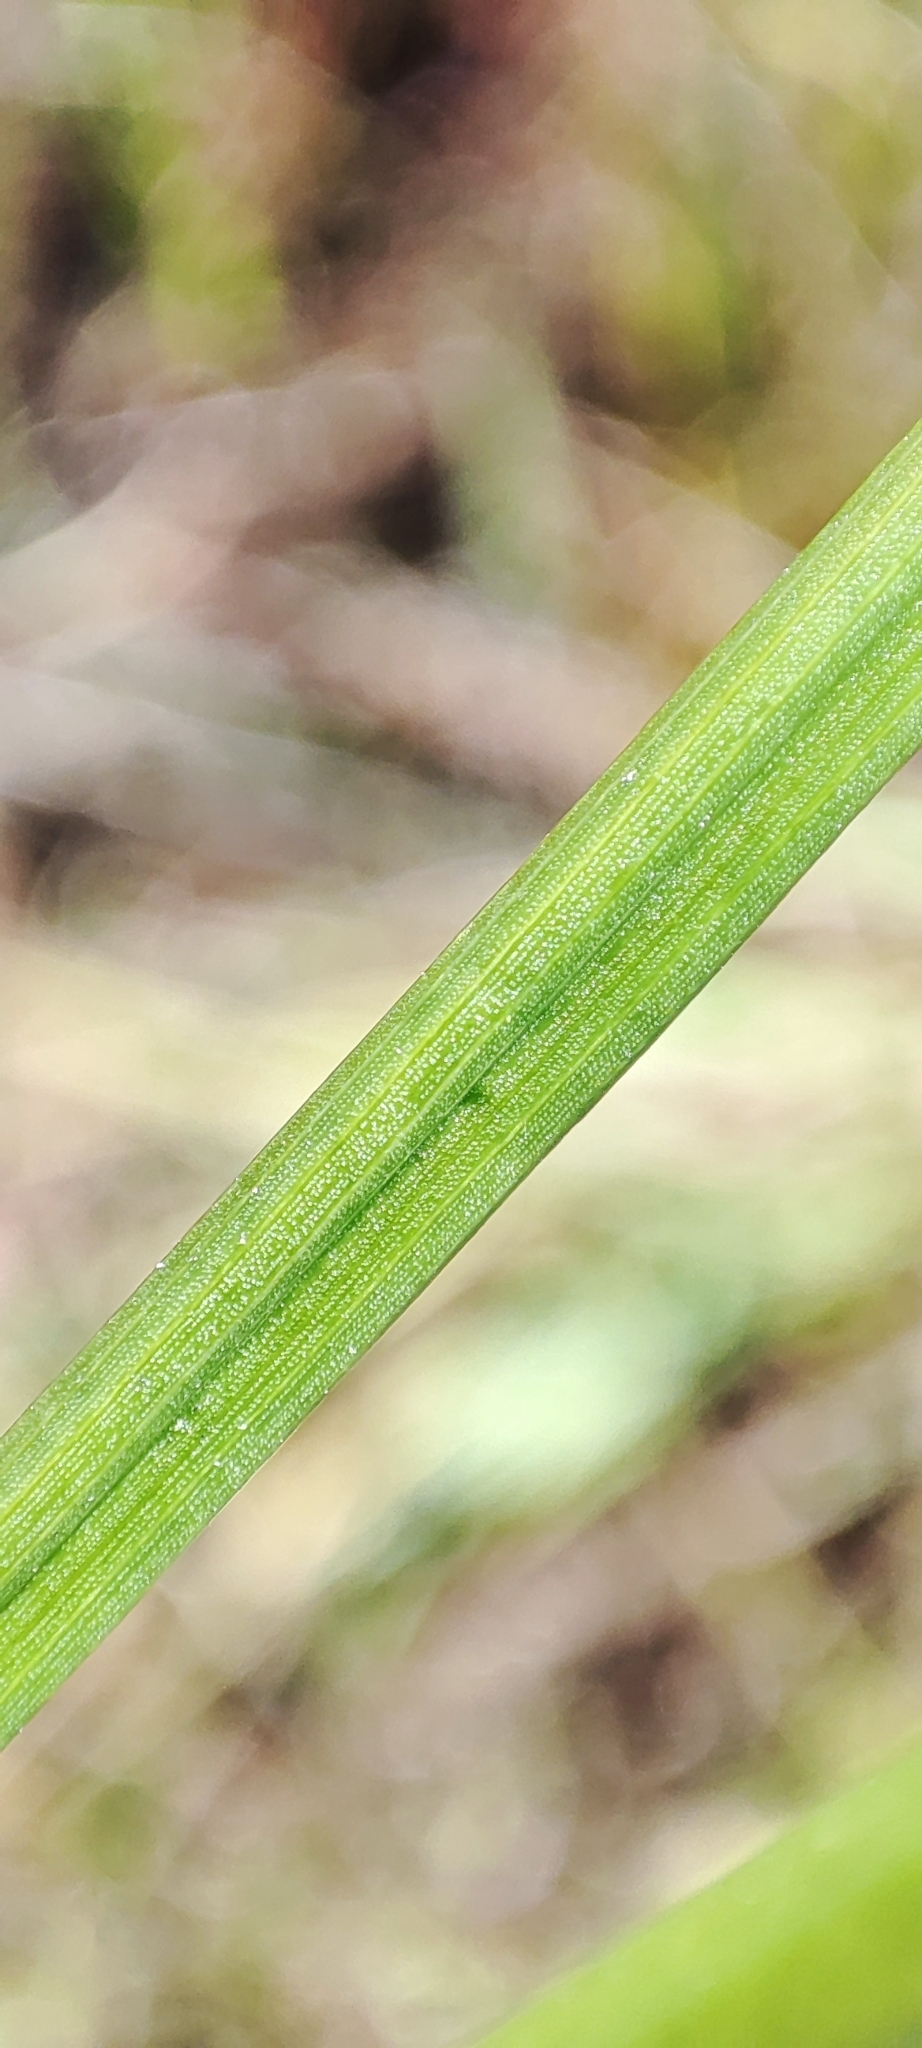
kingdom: Plantae
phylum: Tracheophyta
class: Liliopsida
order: Poales
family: Juncaceae
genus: Juncus
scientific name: Juncus articulatus
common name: Jointed rush
